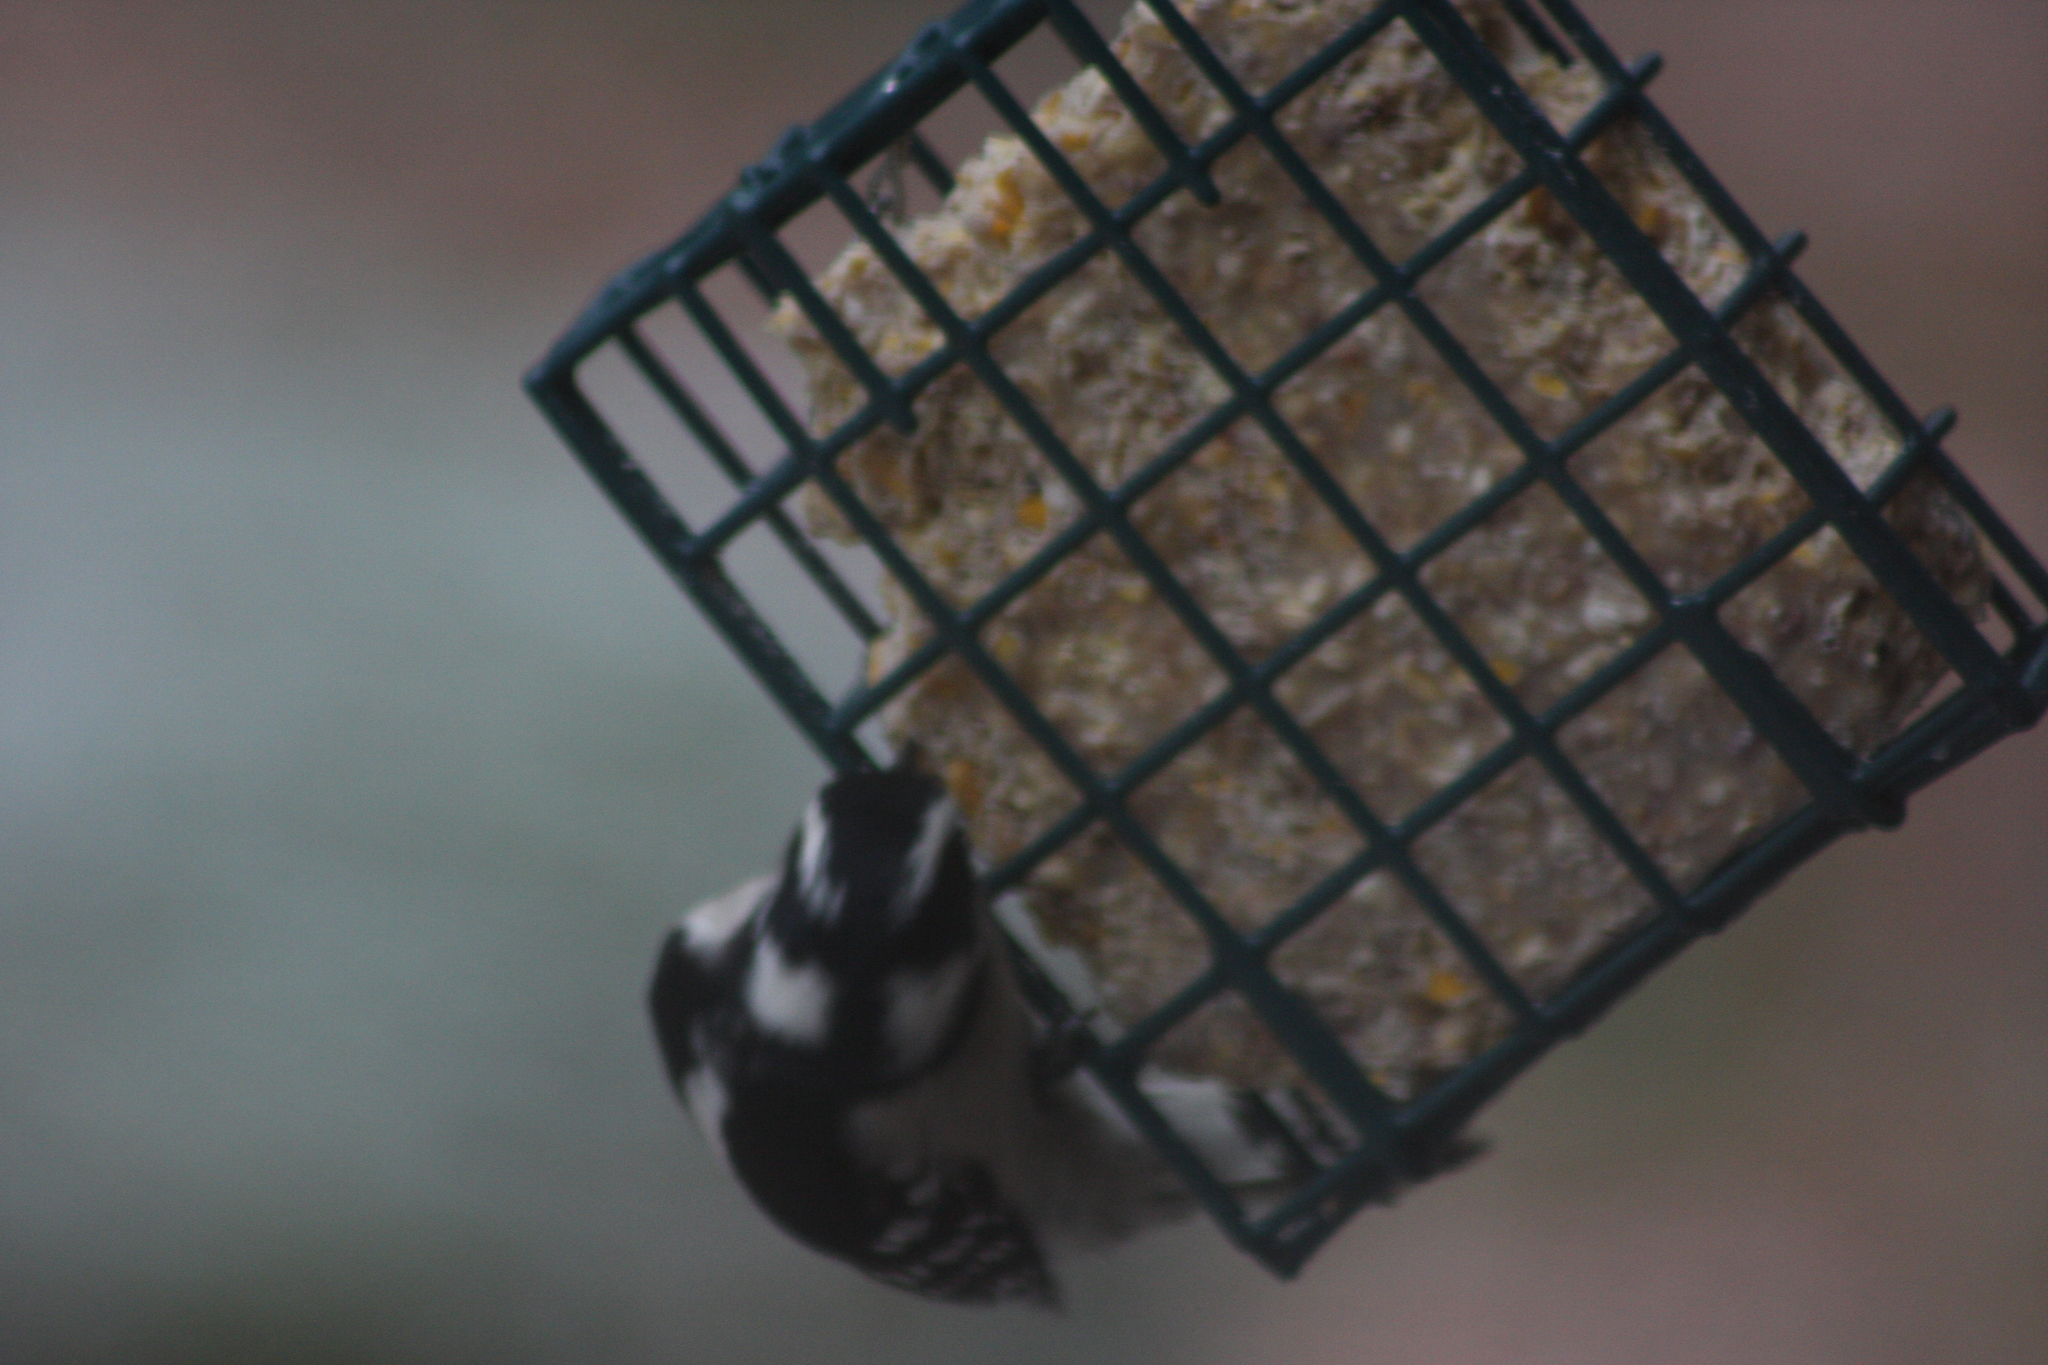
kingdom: Animalia
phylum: Chordata
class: Aves
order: Piciformes
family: Picidae
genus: Dryobates
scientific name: Dryobates pubescens
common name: Downy woodpecker
